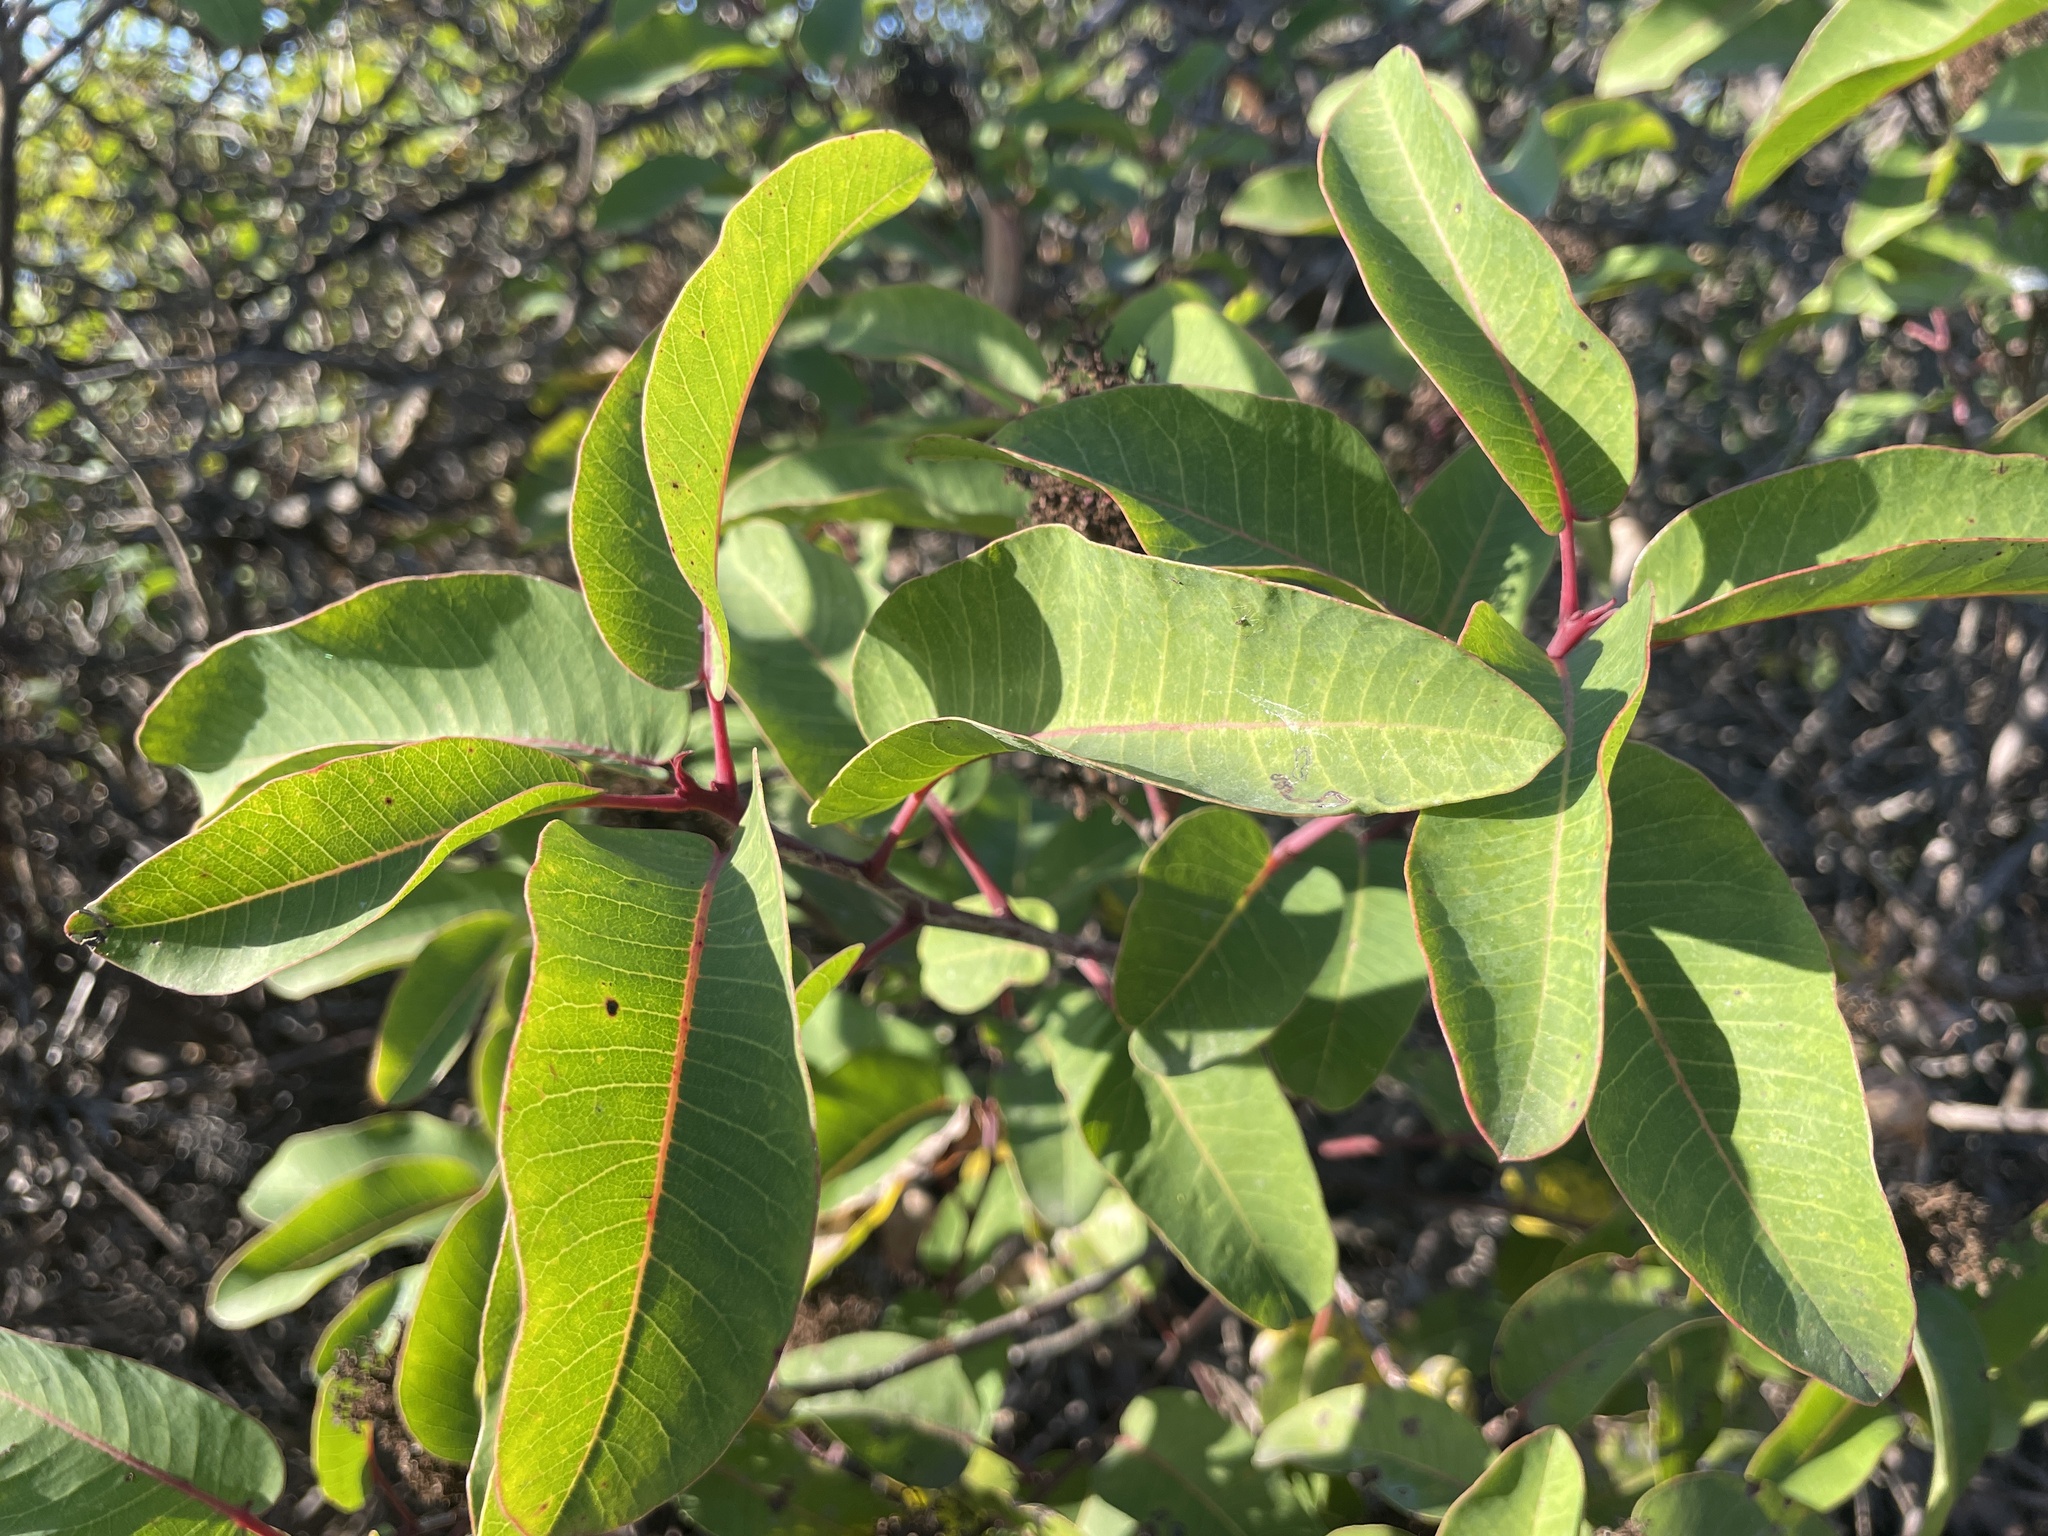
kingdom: Plantae
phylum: Tracheophyta
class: Magnoliopsida
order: Sapindales
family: Anacardiaceae
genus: Malosma
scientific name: Malosma laurina
